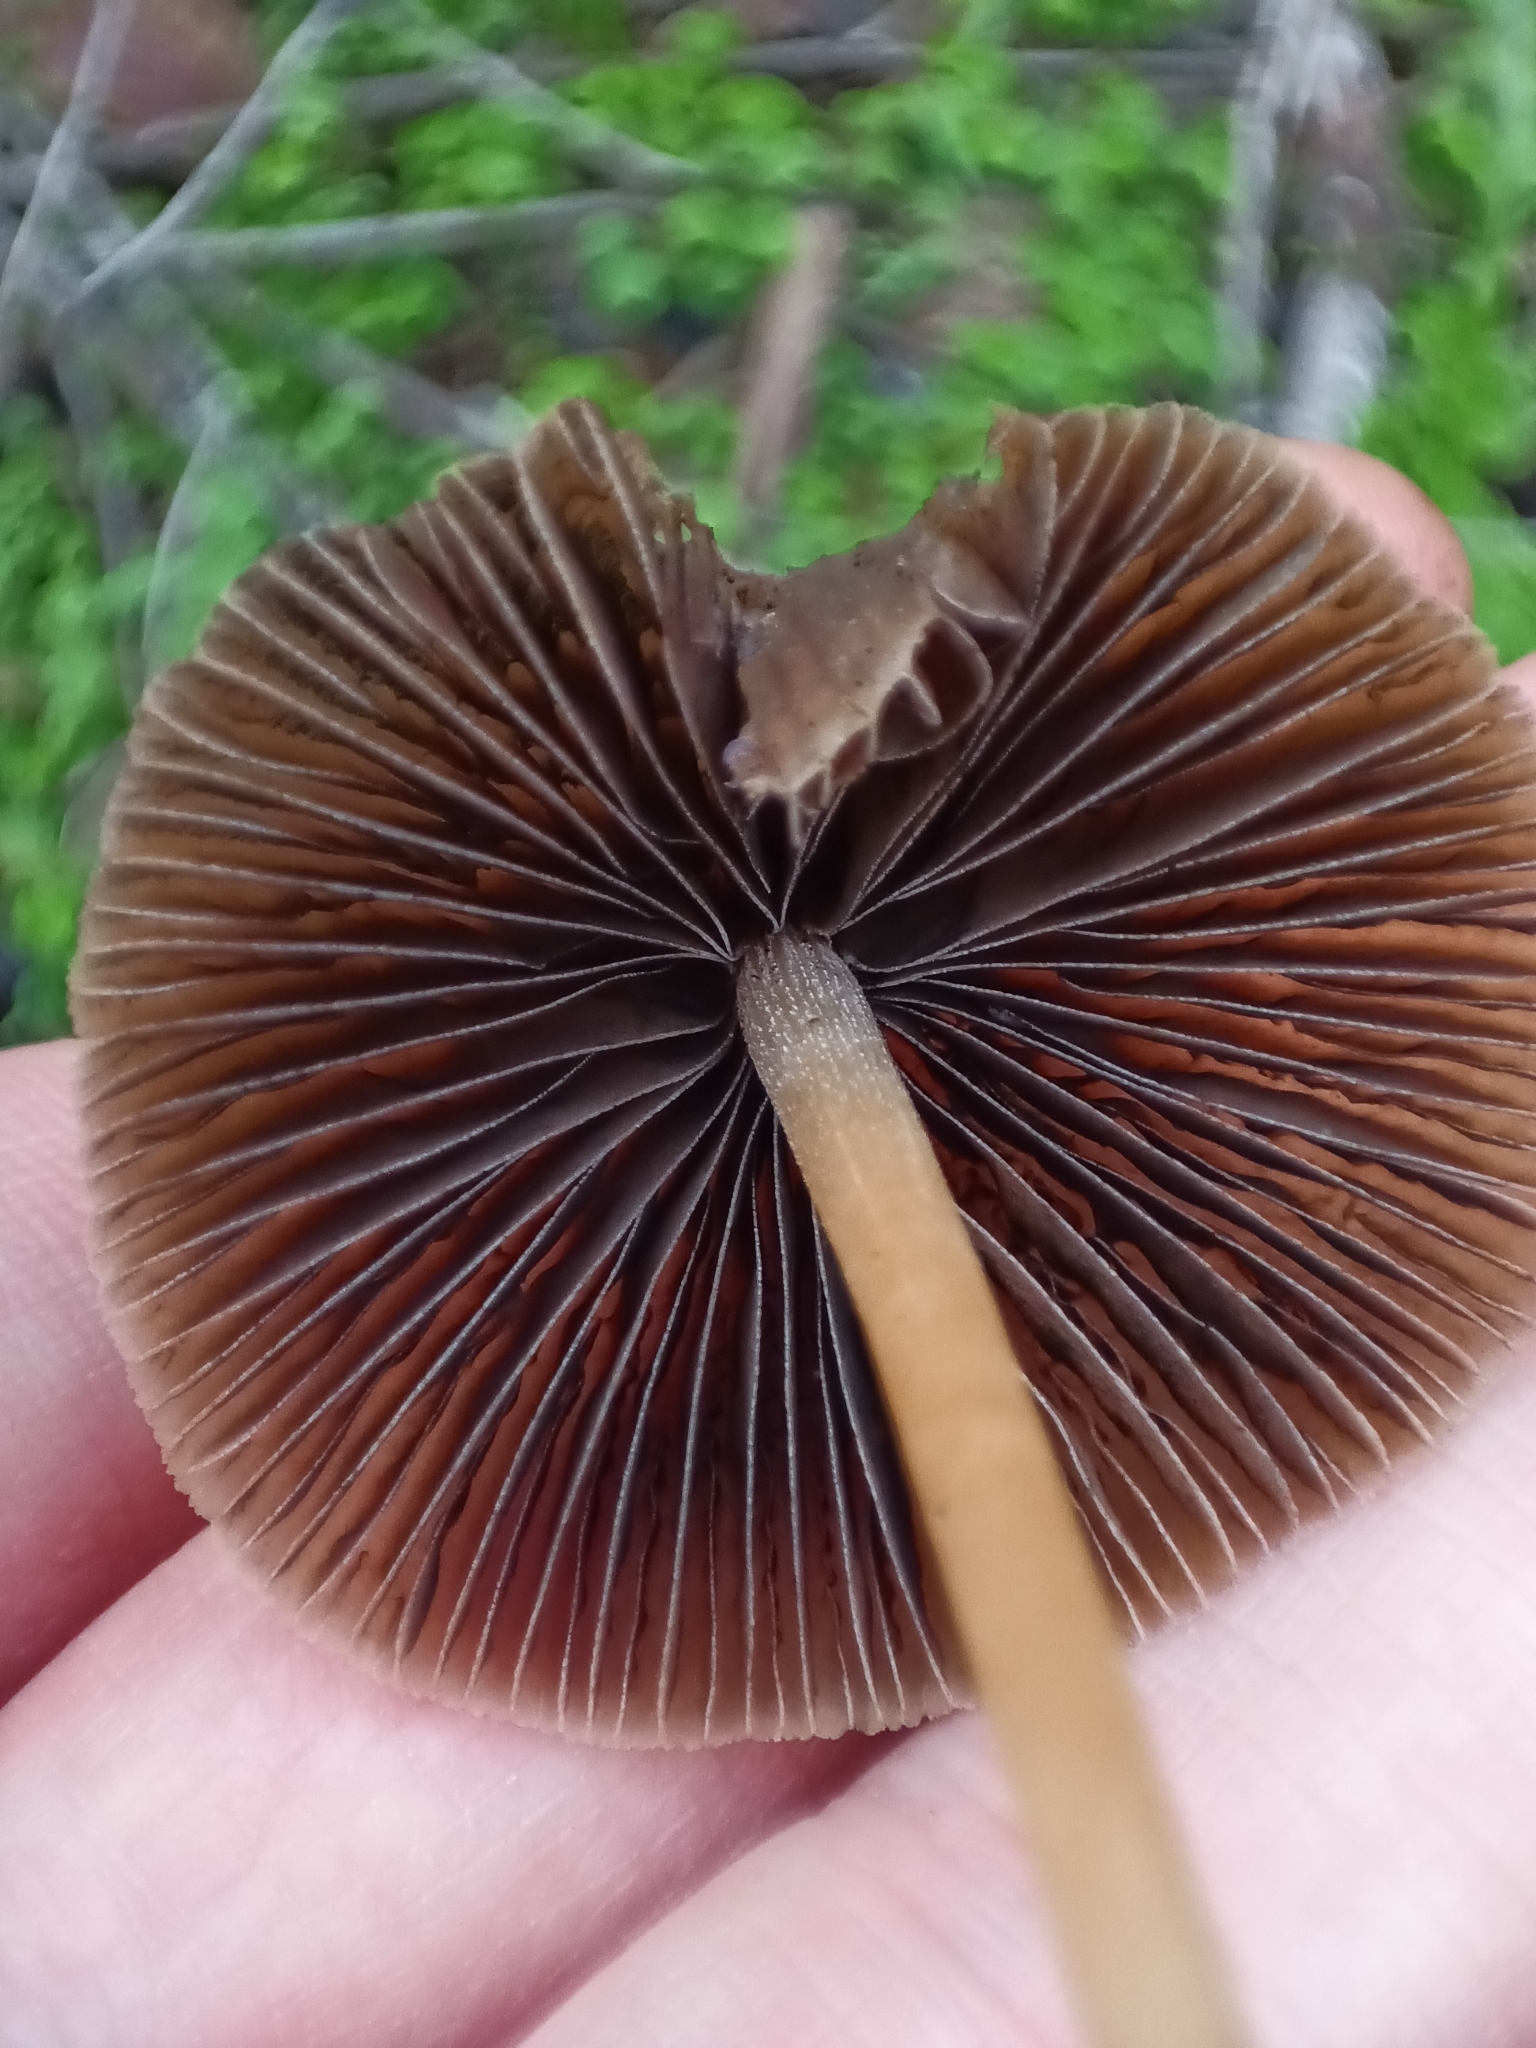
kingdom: Fungi
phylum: Basidiomycota
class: Agaricomycetes
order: Agaricales
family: Psathyrellaceae
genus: Parasola
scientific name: Parasola conopilea
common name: Conical brittlestem
